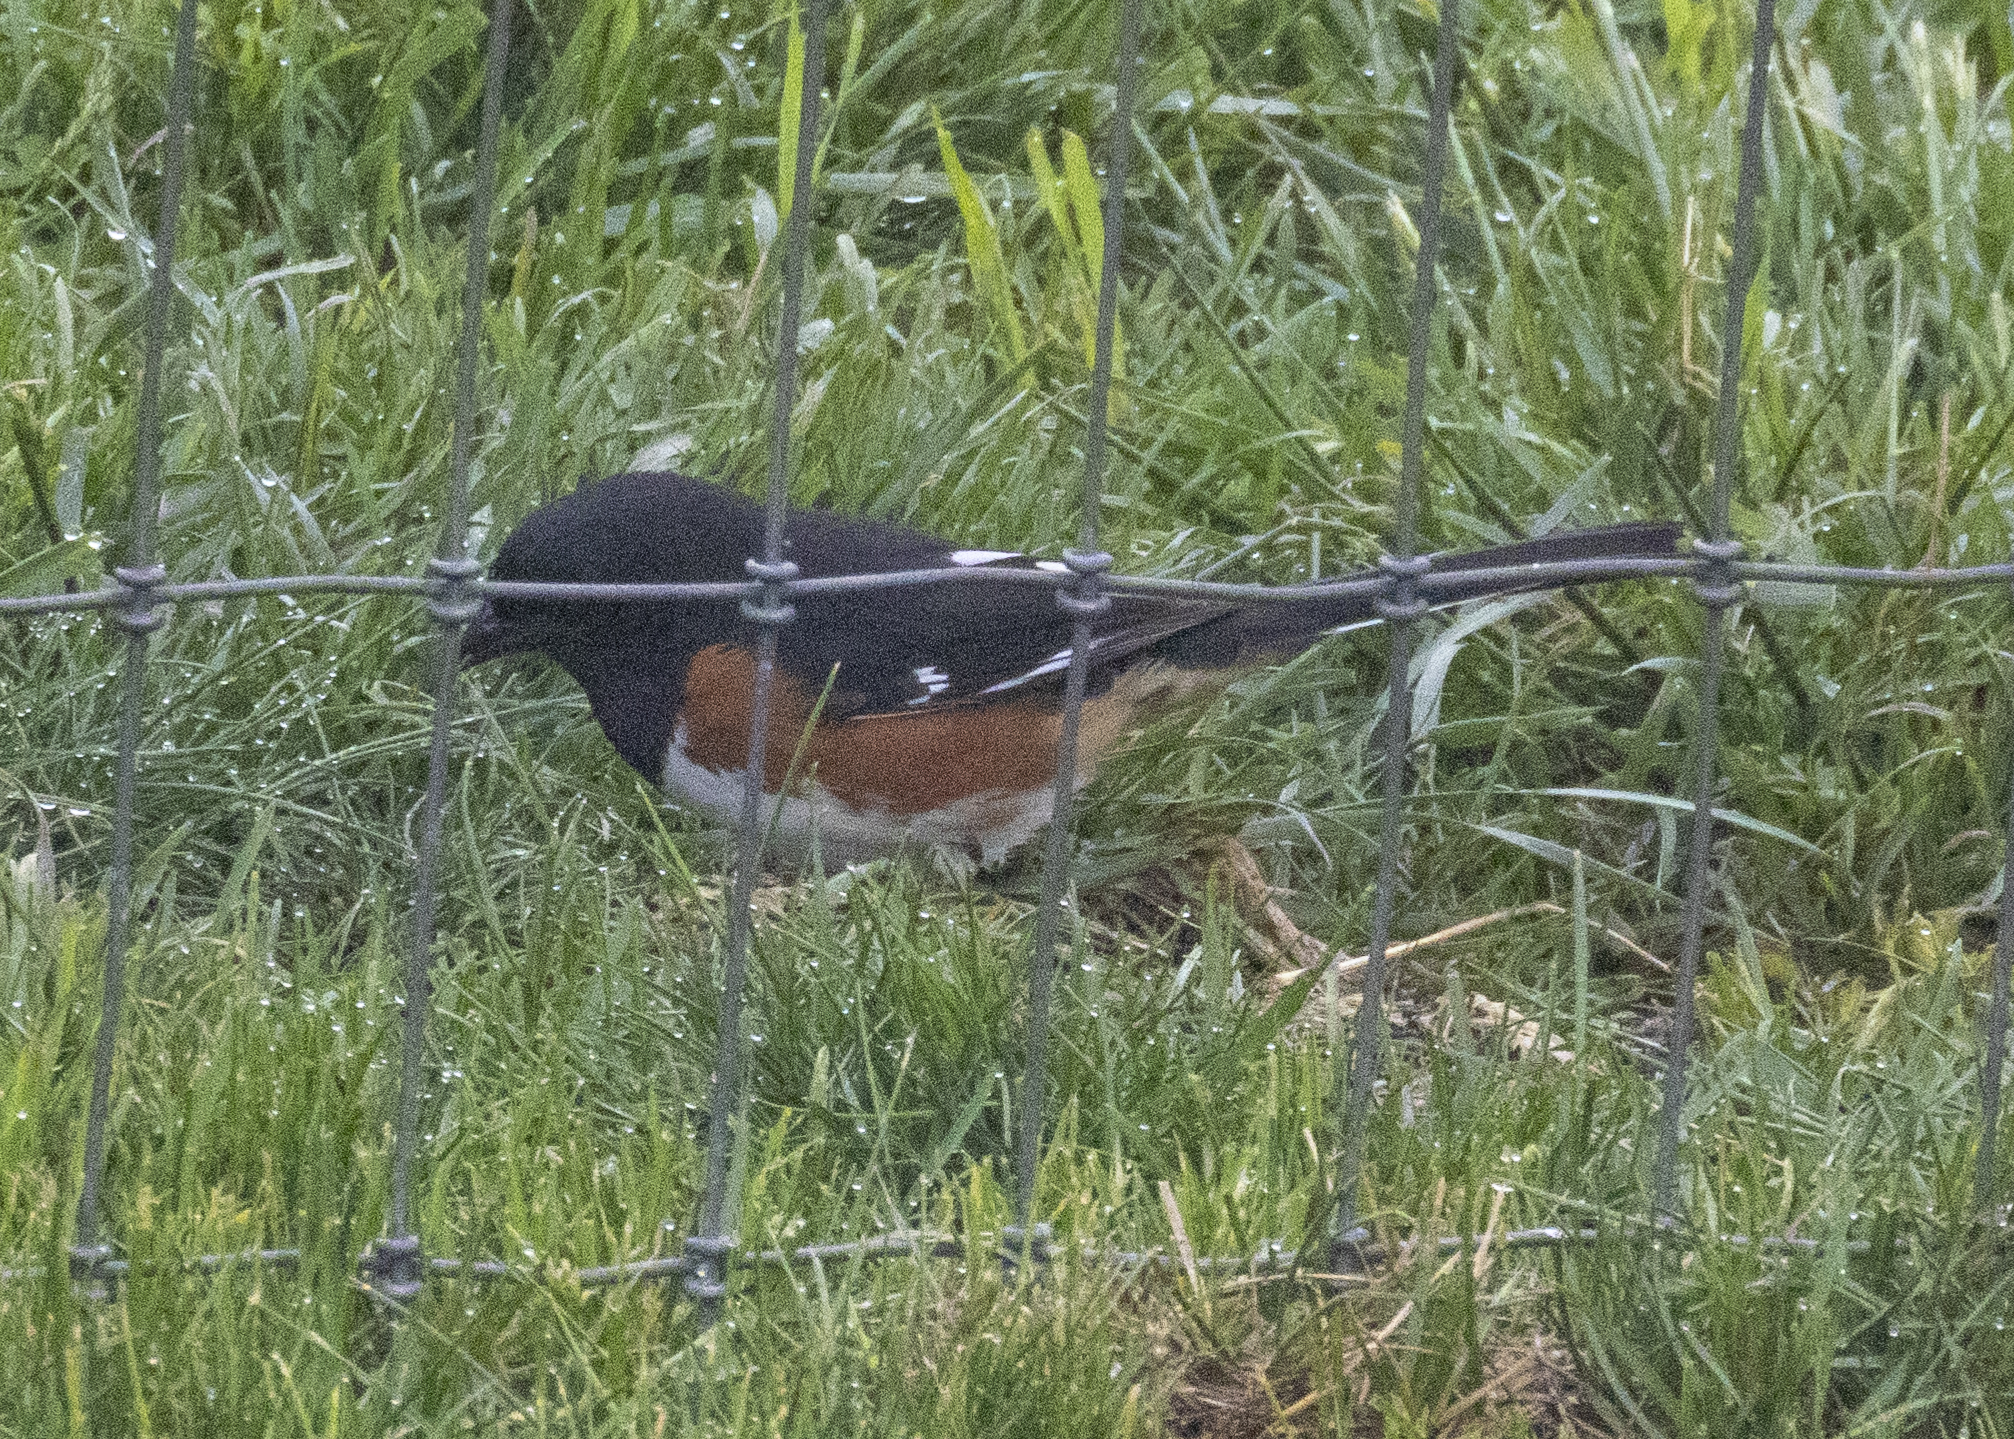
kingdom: Animalia
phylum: Chordata
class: Aves
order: Passeriformes
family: Passerellidae
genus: Pipilo
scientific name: Pipilo erythrophthalmus
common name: Eastern towhee
